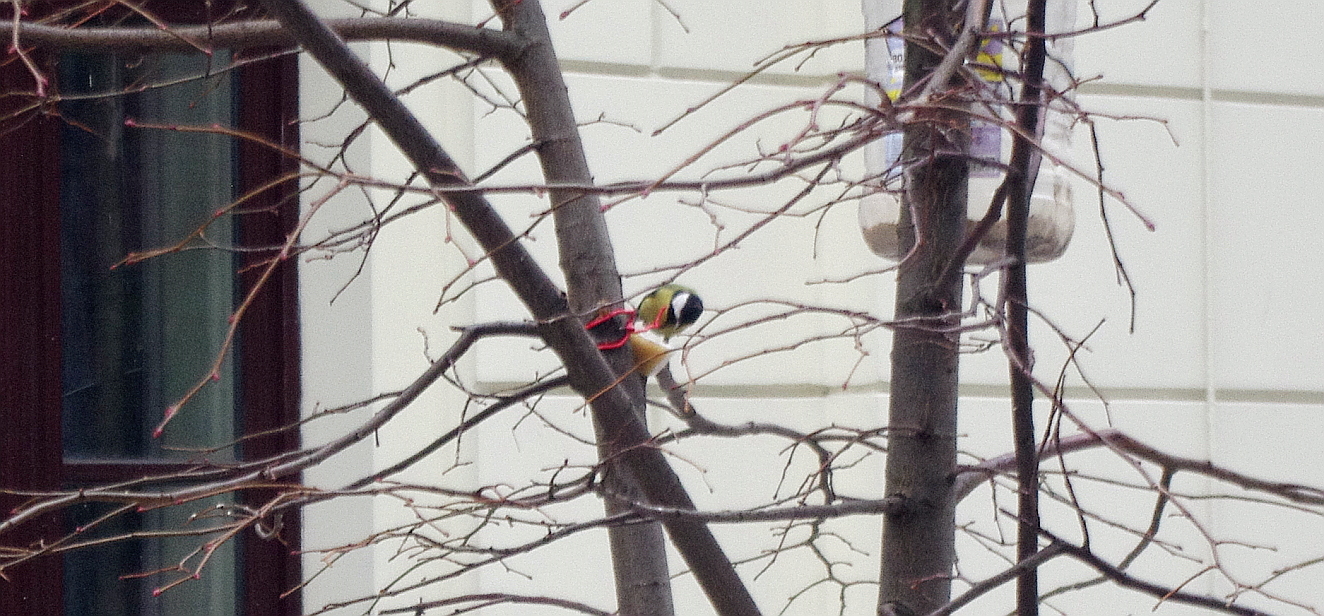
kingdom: Animalia
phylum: Chordata
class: Aves
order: Passeriformes
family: Paridae
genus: Parus
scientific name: Parus major
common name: Great tit
